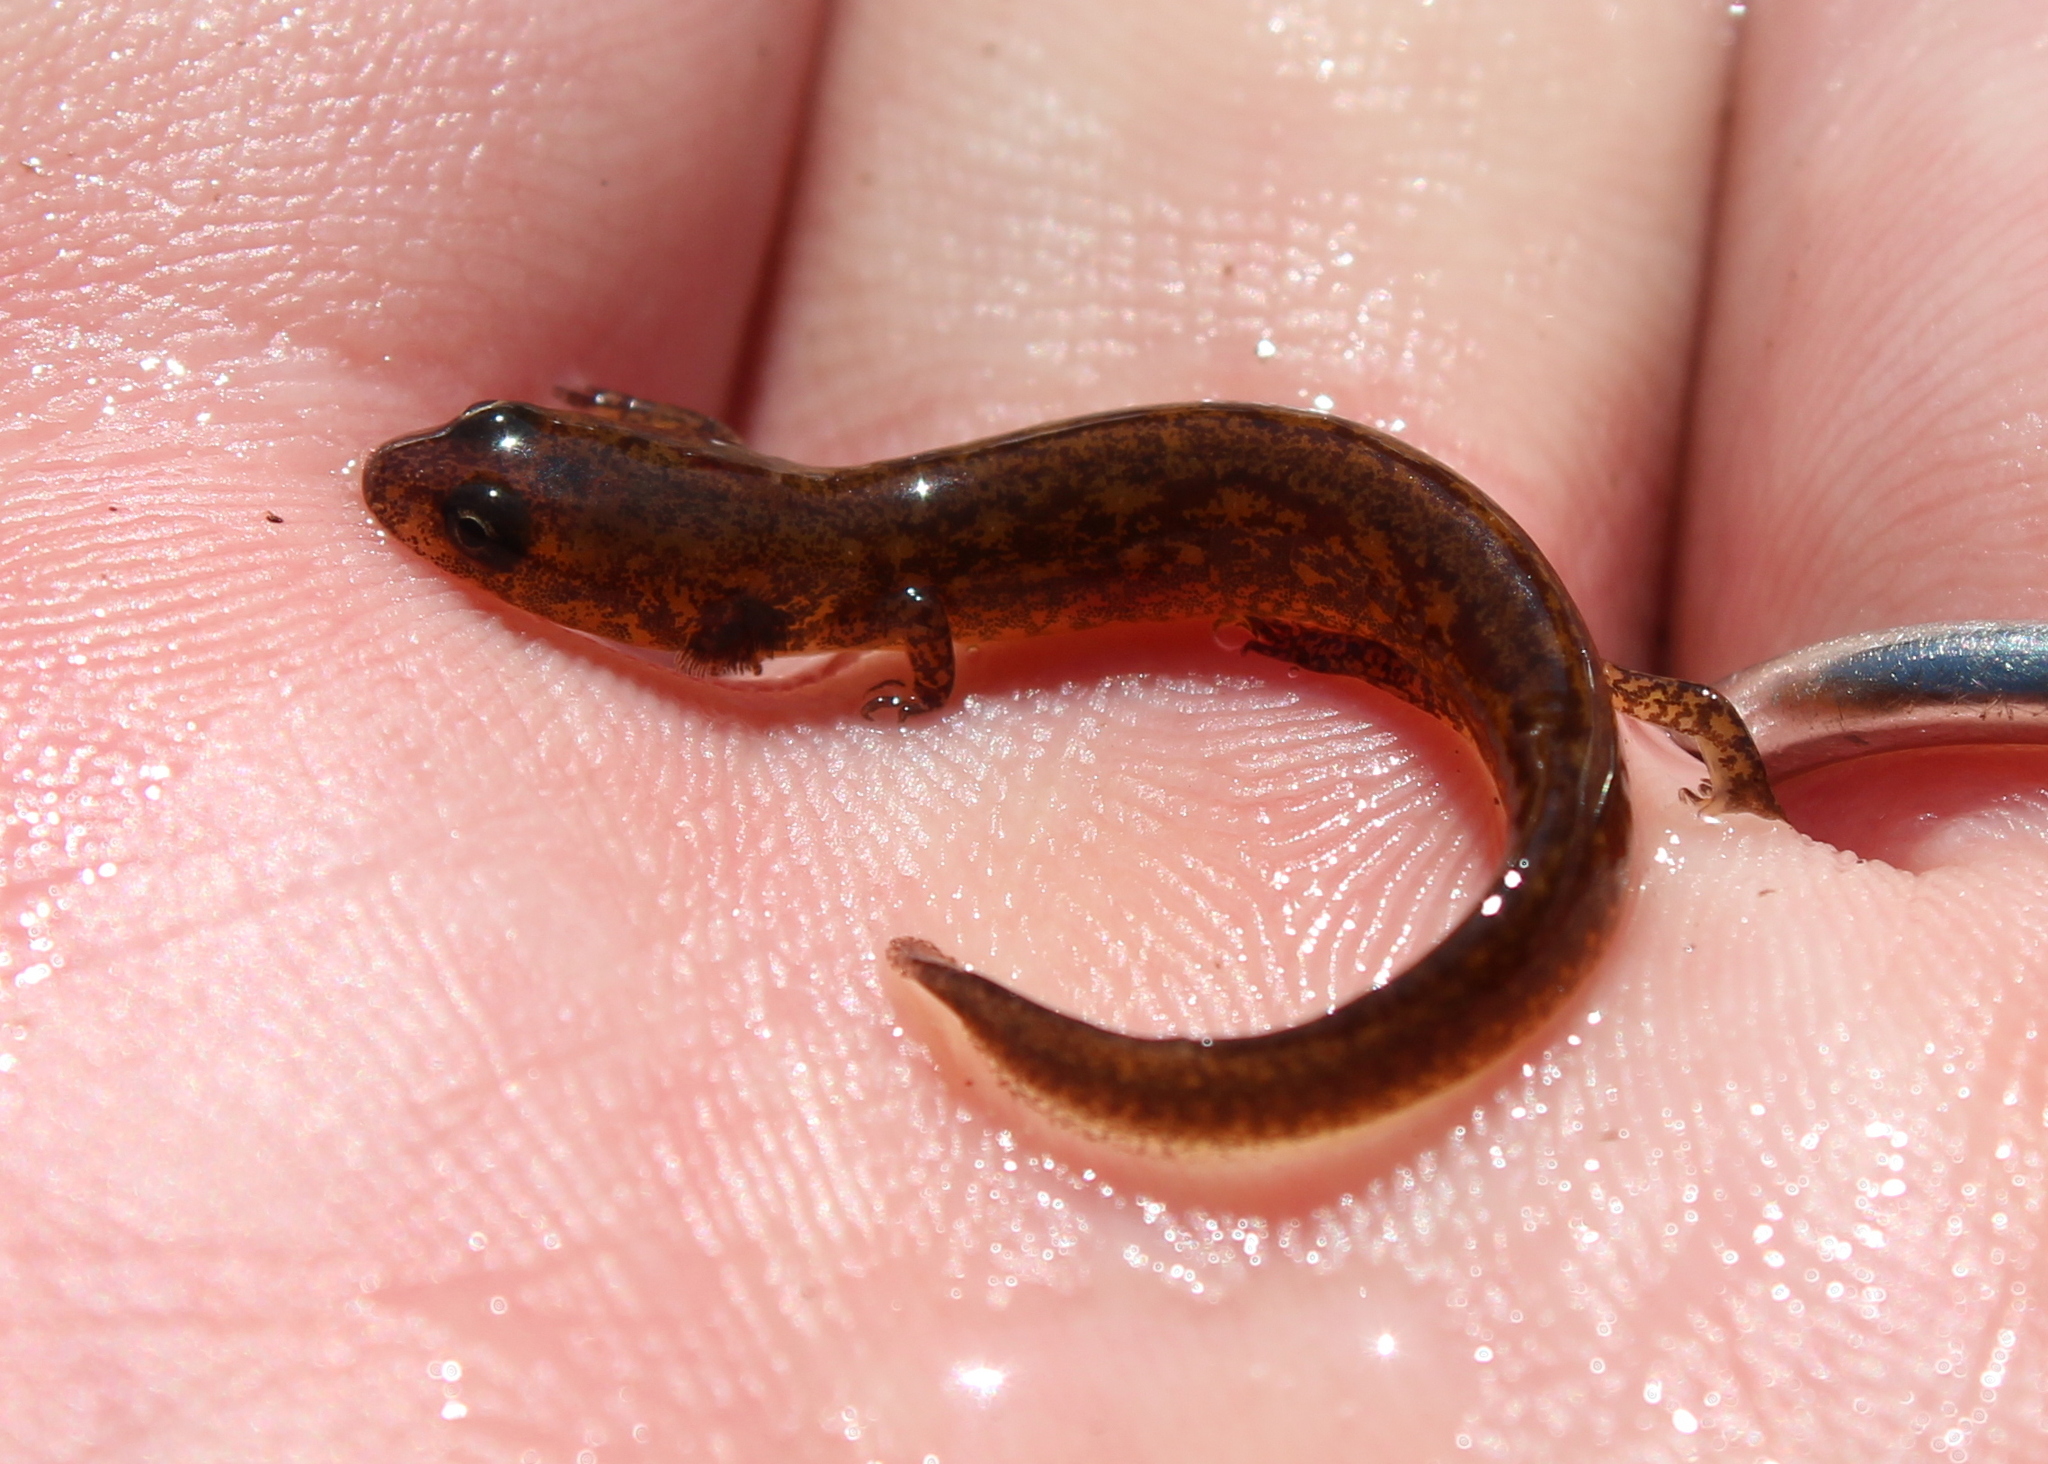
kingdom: Animalia
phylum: Chordata
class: Amphibia
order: Caudata
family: Plethodontidae
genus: Eurycea
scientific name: Eurycea bislineata
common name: Northern two-lined salamander
